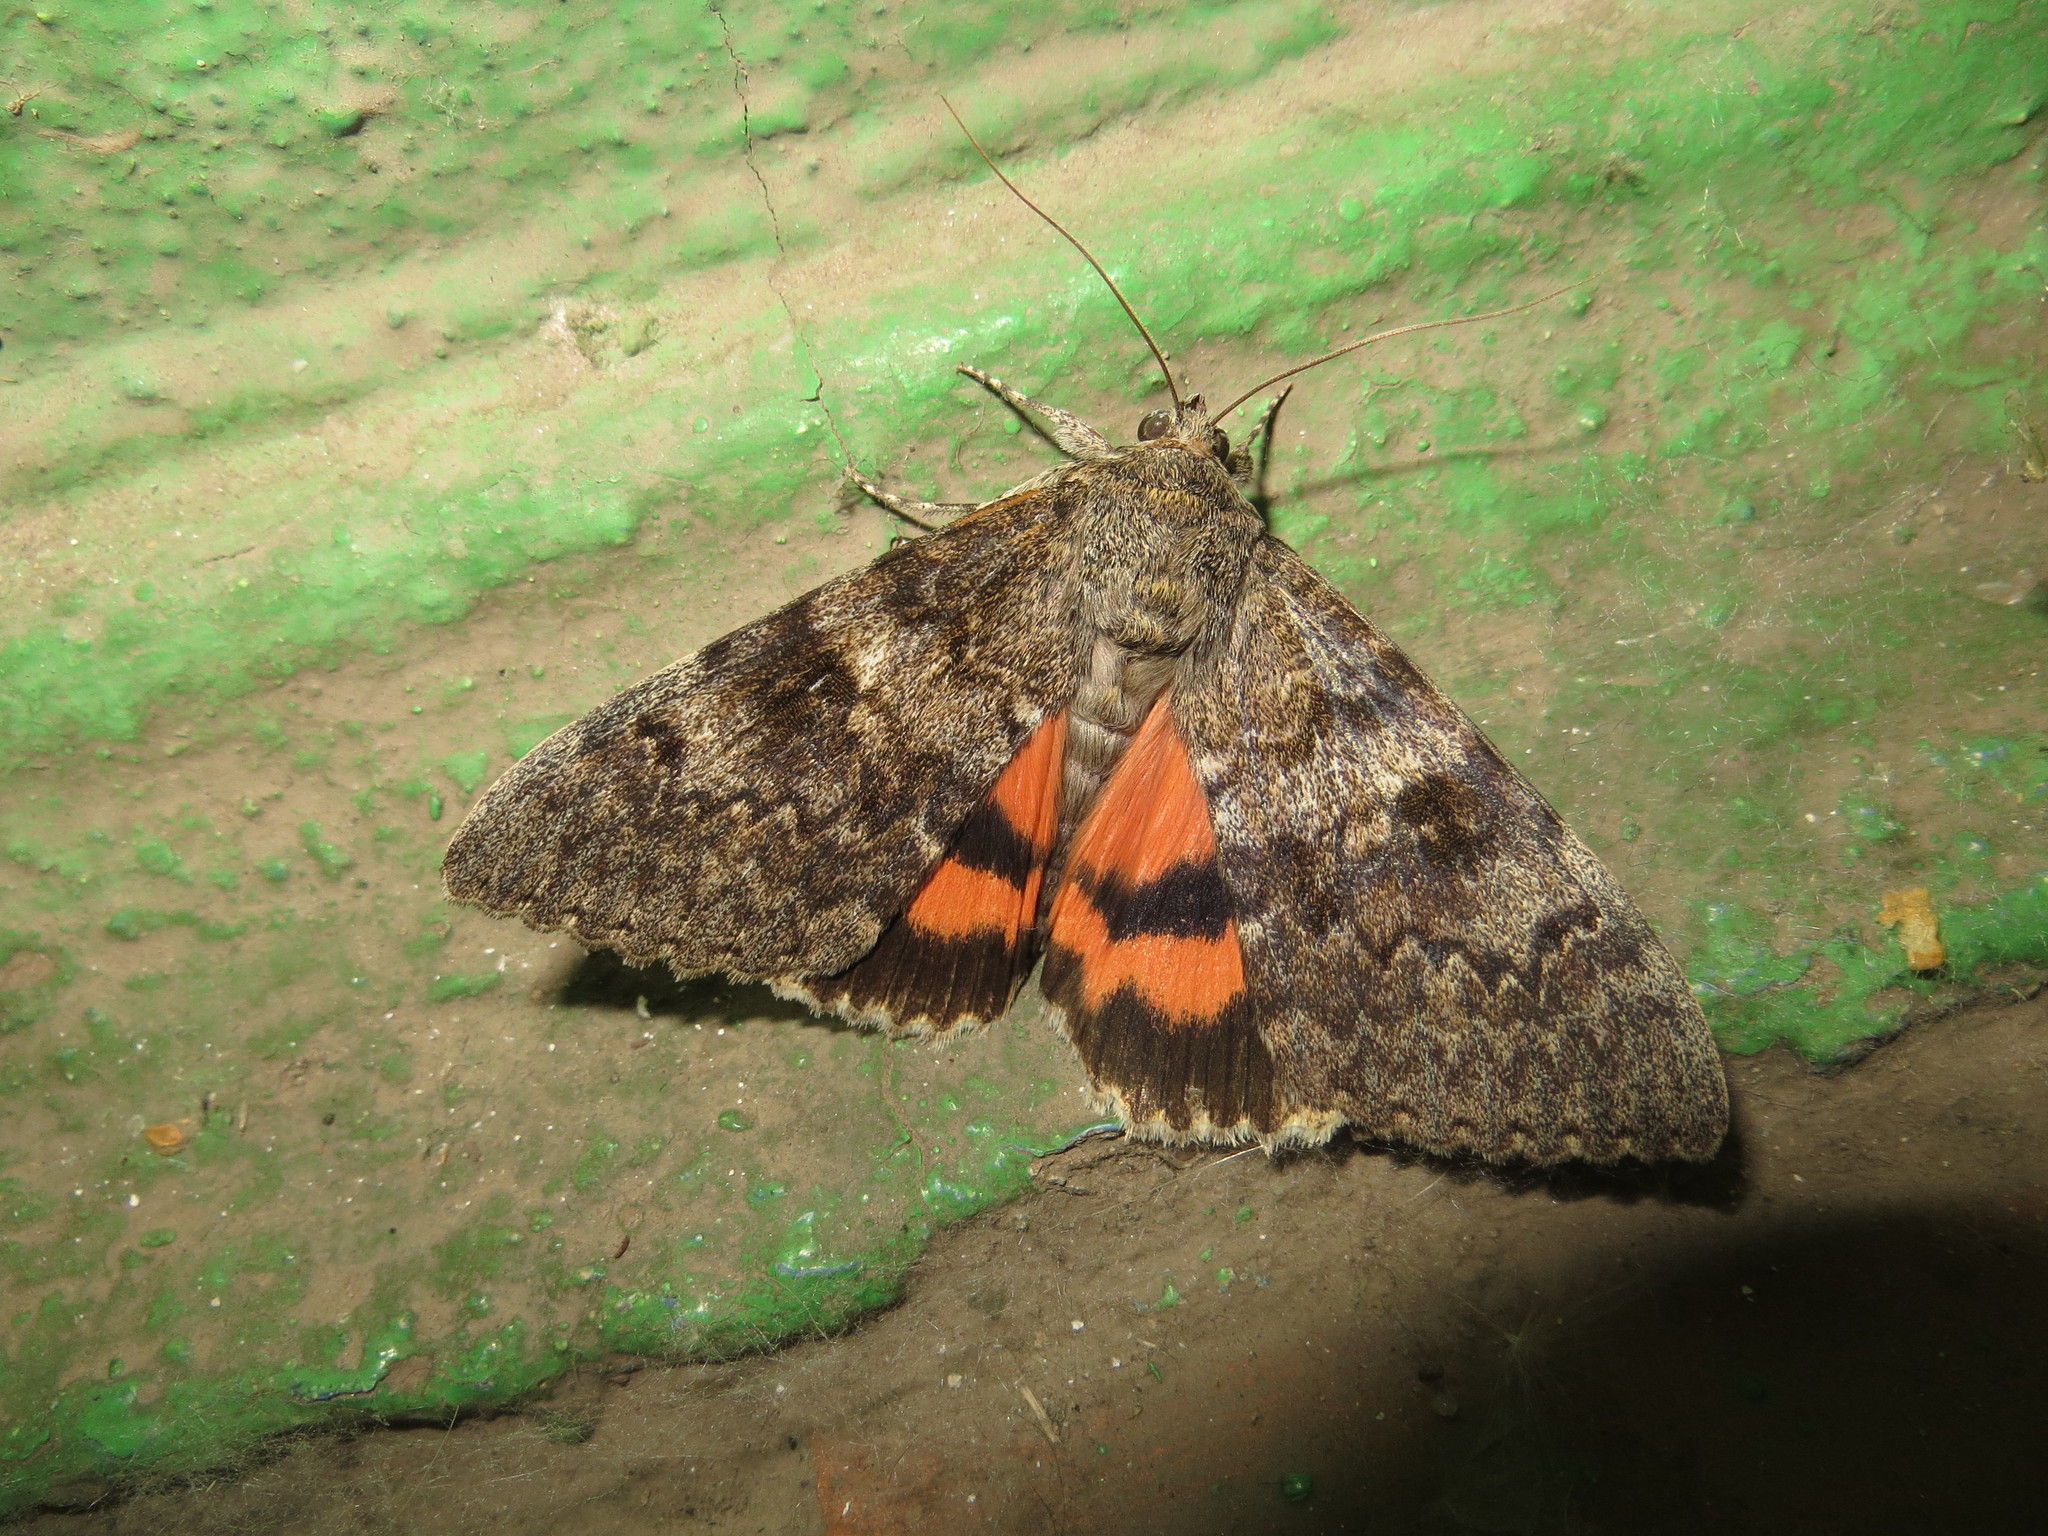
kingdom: Animalia
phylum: Arthropoda
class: Insecta
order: Lepidoptera
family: Erebidae
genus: Catocala
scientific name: Catocala elocata
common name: French red underwing
